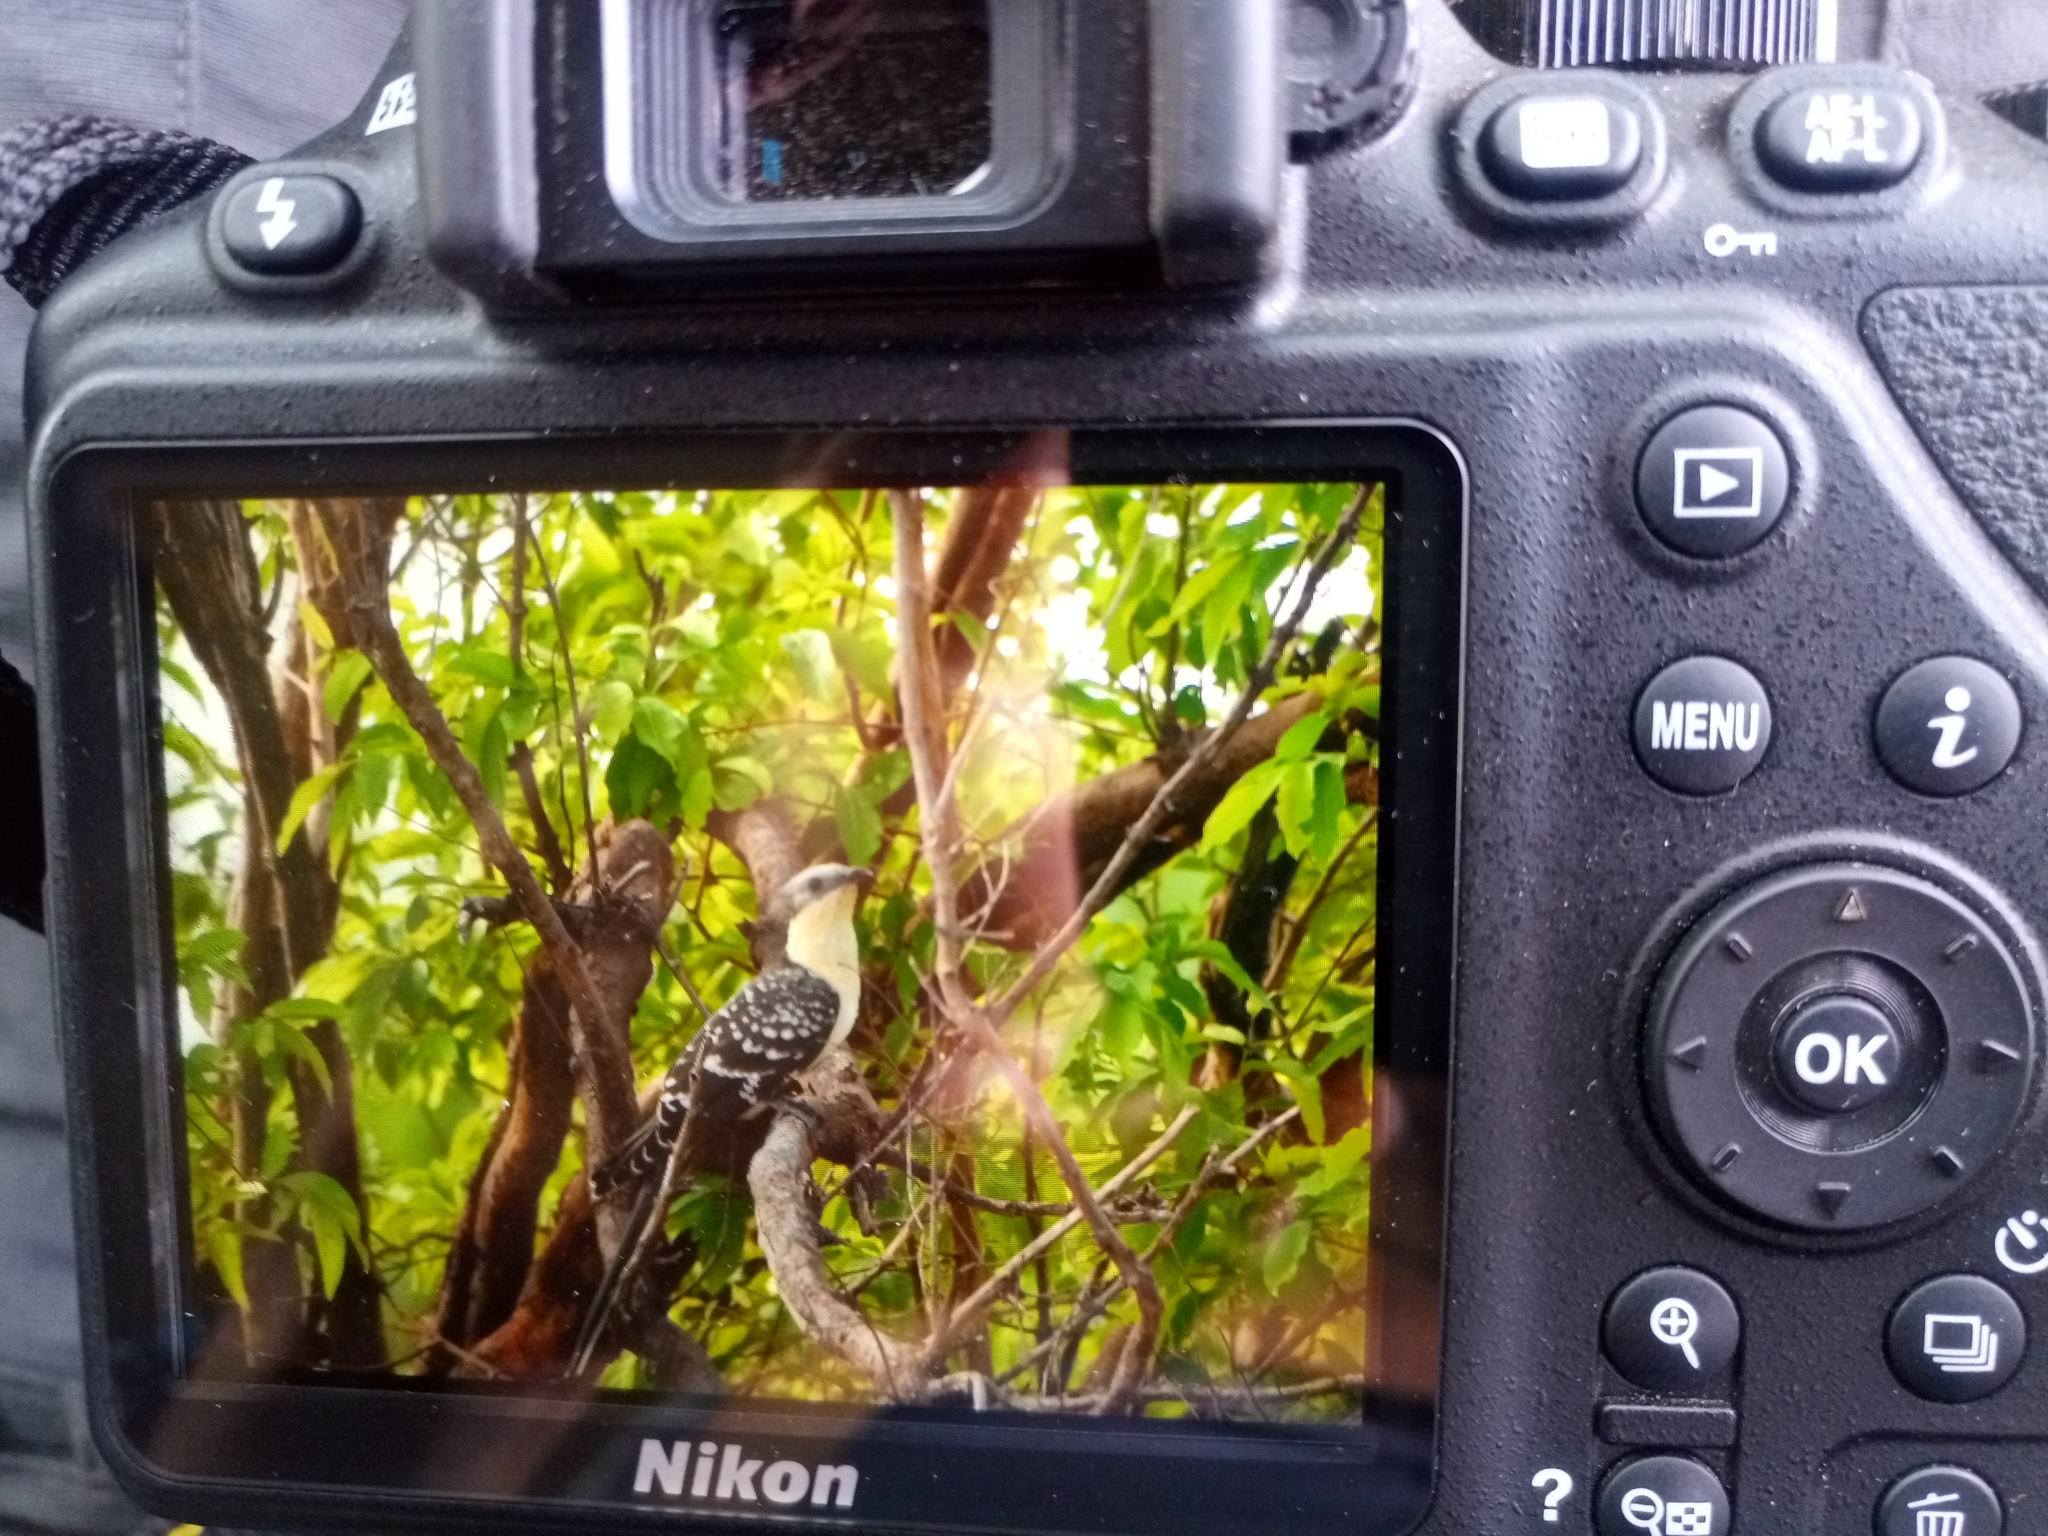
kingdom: Animalia
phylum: Chordata
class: Aves
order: Cuculiformes
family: Cuculidae
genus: Clamator
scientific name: Clamator glandarius
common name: Great spotted cuckoo
